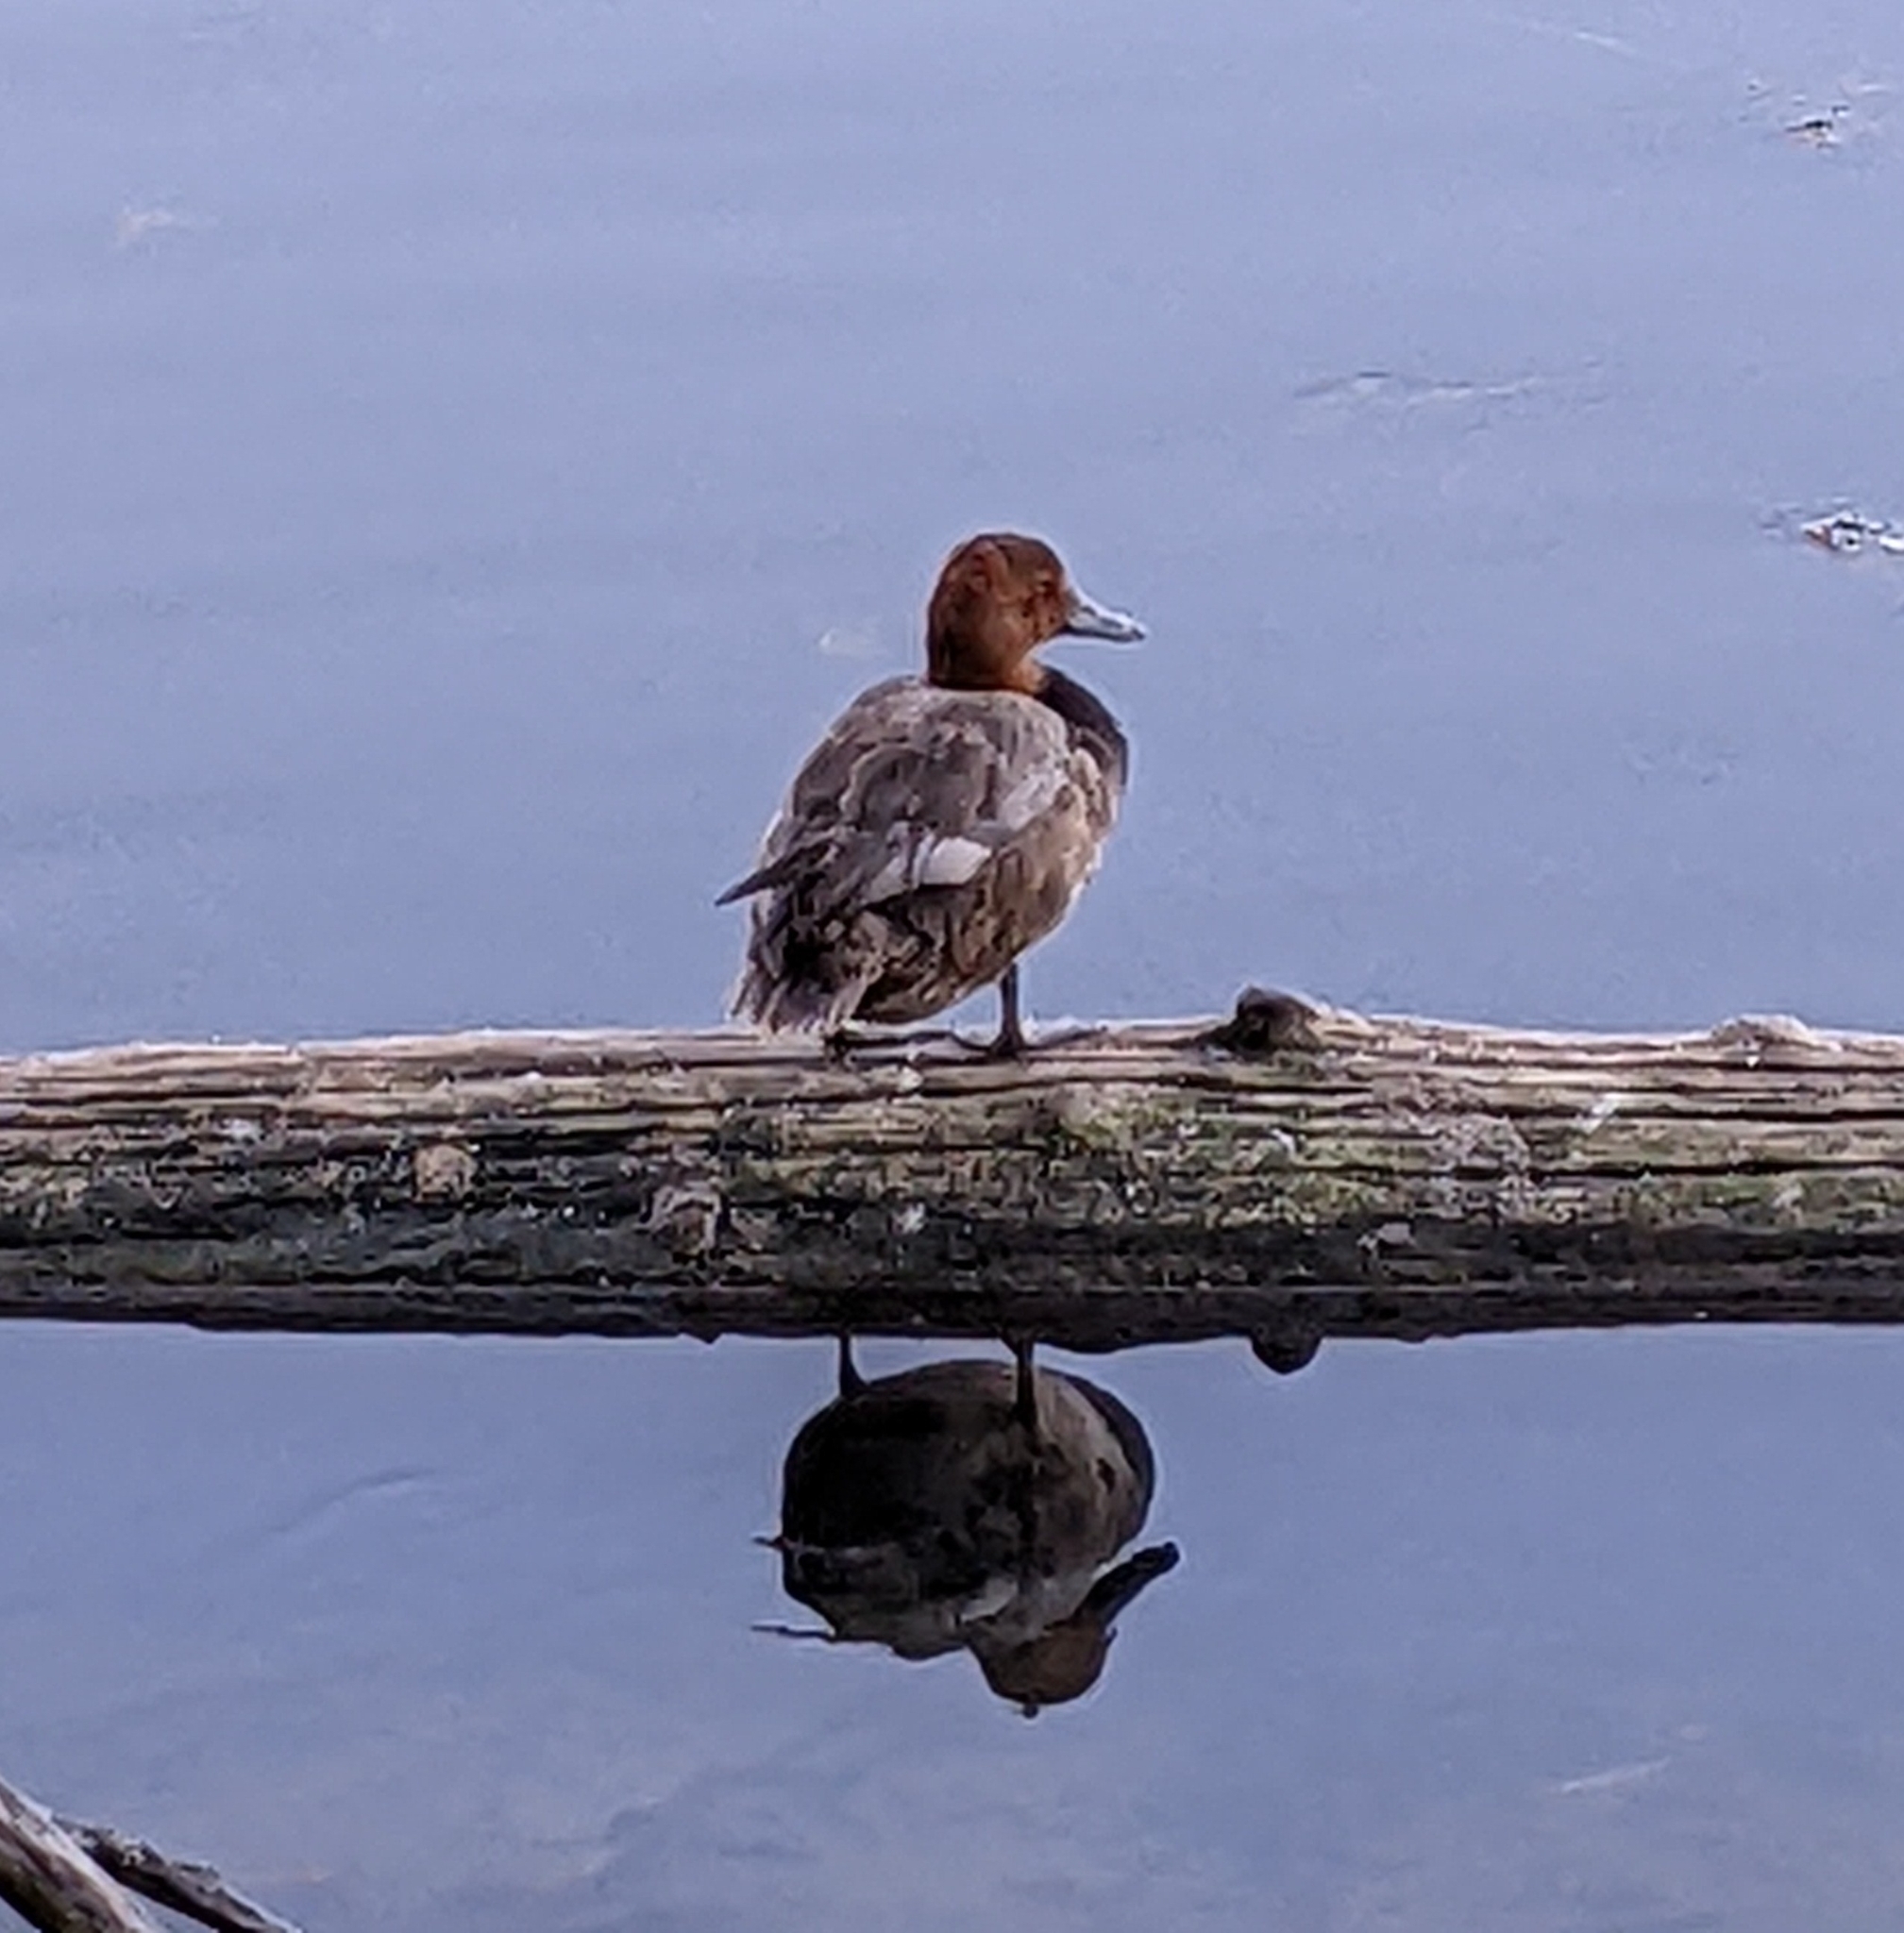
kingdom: Animalia
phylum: Chordata
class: Aves
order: Anseriformes
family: Anatidae
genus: Aythya
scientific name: Aythya americana
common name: Redhead
